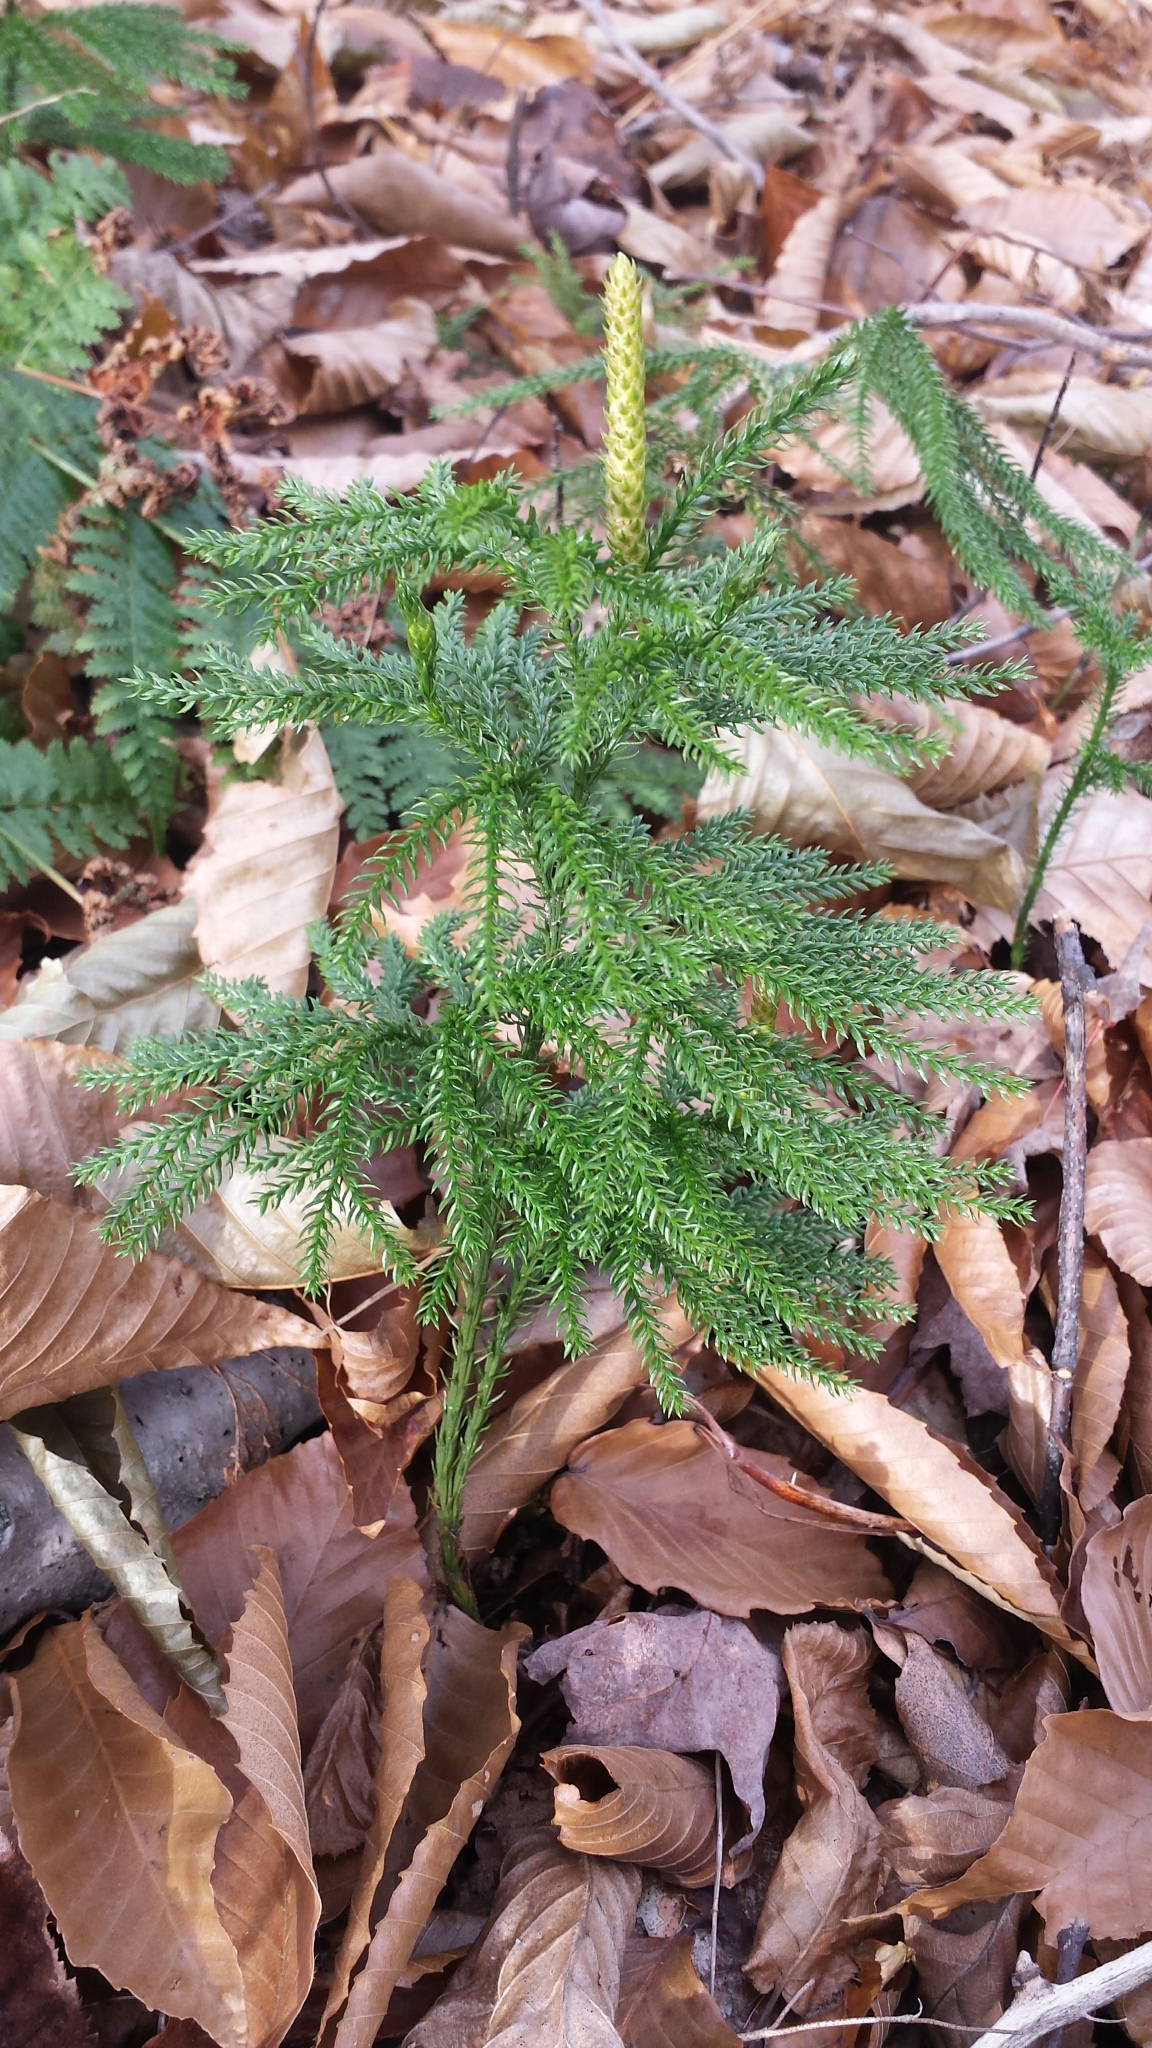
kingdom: Plantae
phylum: Tracheophyta
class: Lycopodiopsida
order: Lycopodiales
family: Lycopodiaceae
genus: Dendrolycopodium
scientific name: Dendrolycopodium dendroideum
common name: Northern tree-clubmoss
